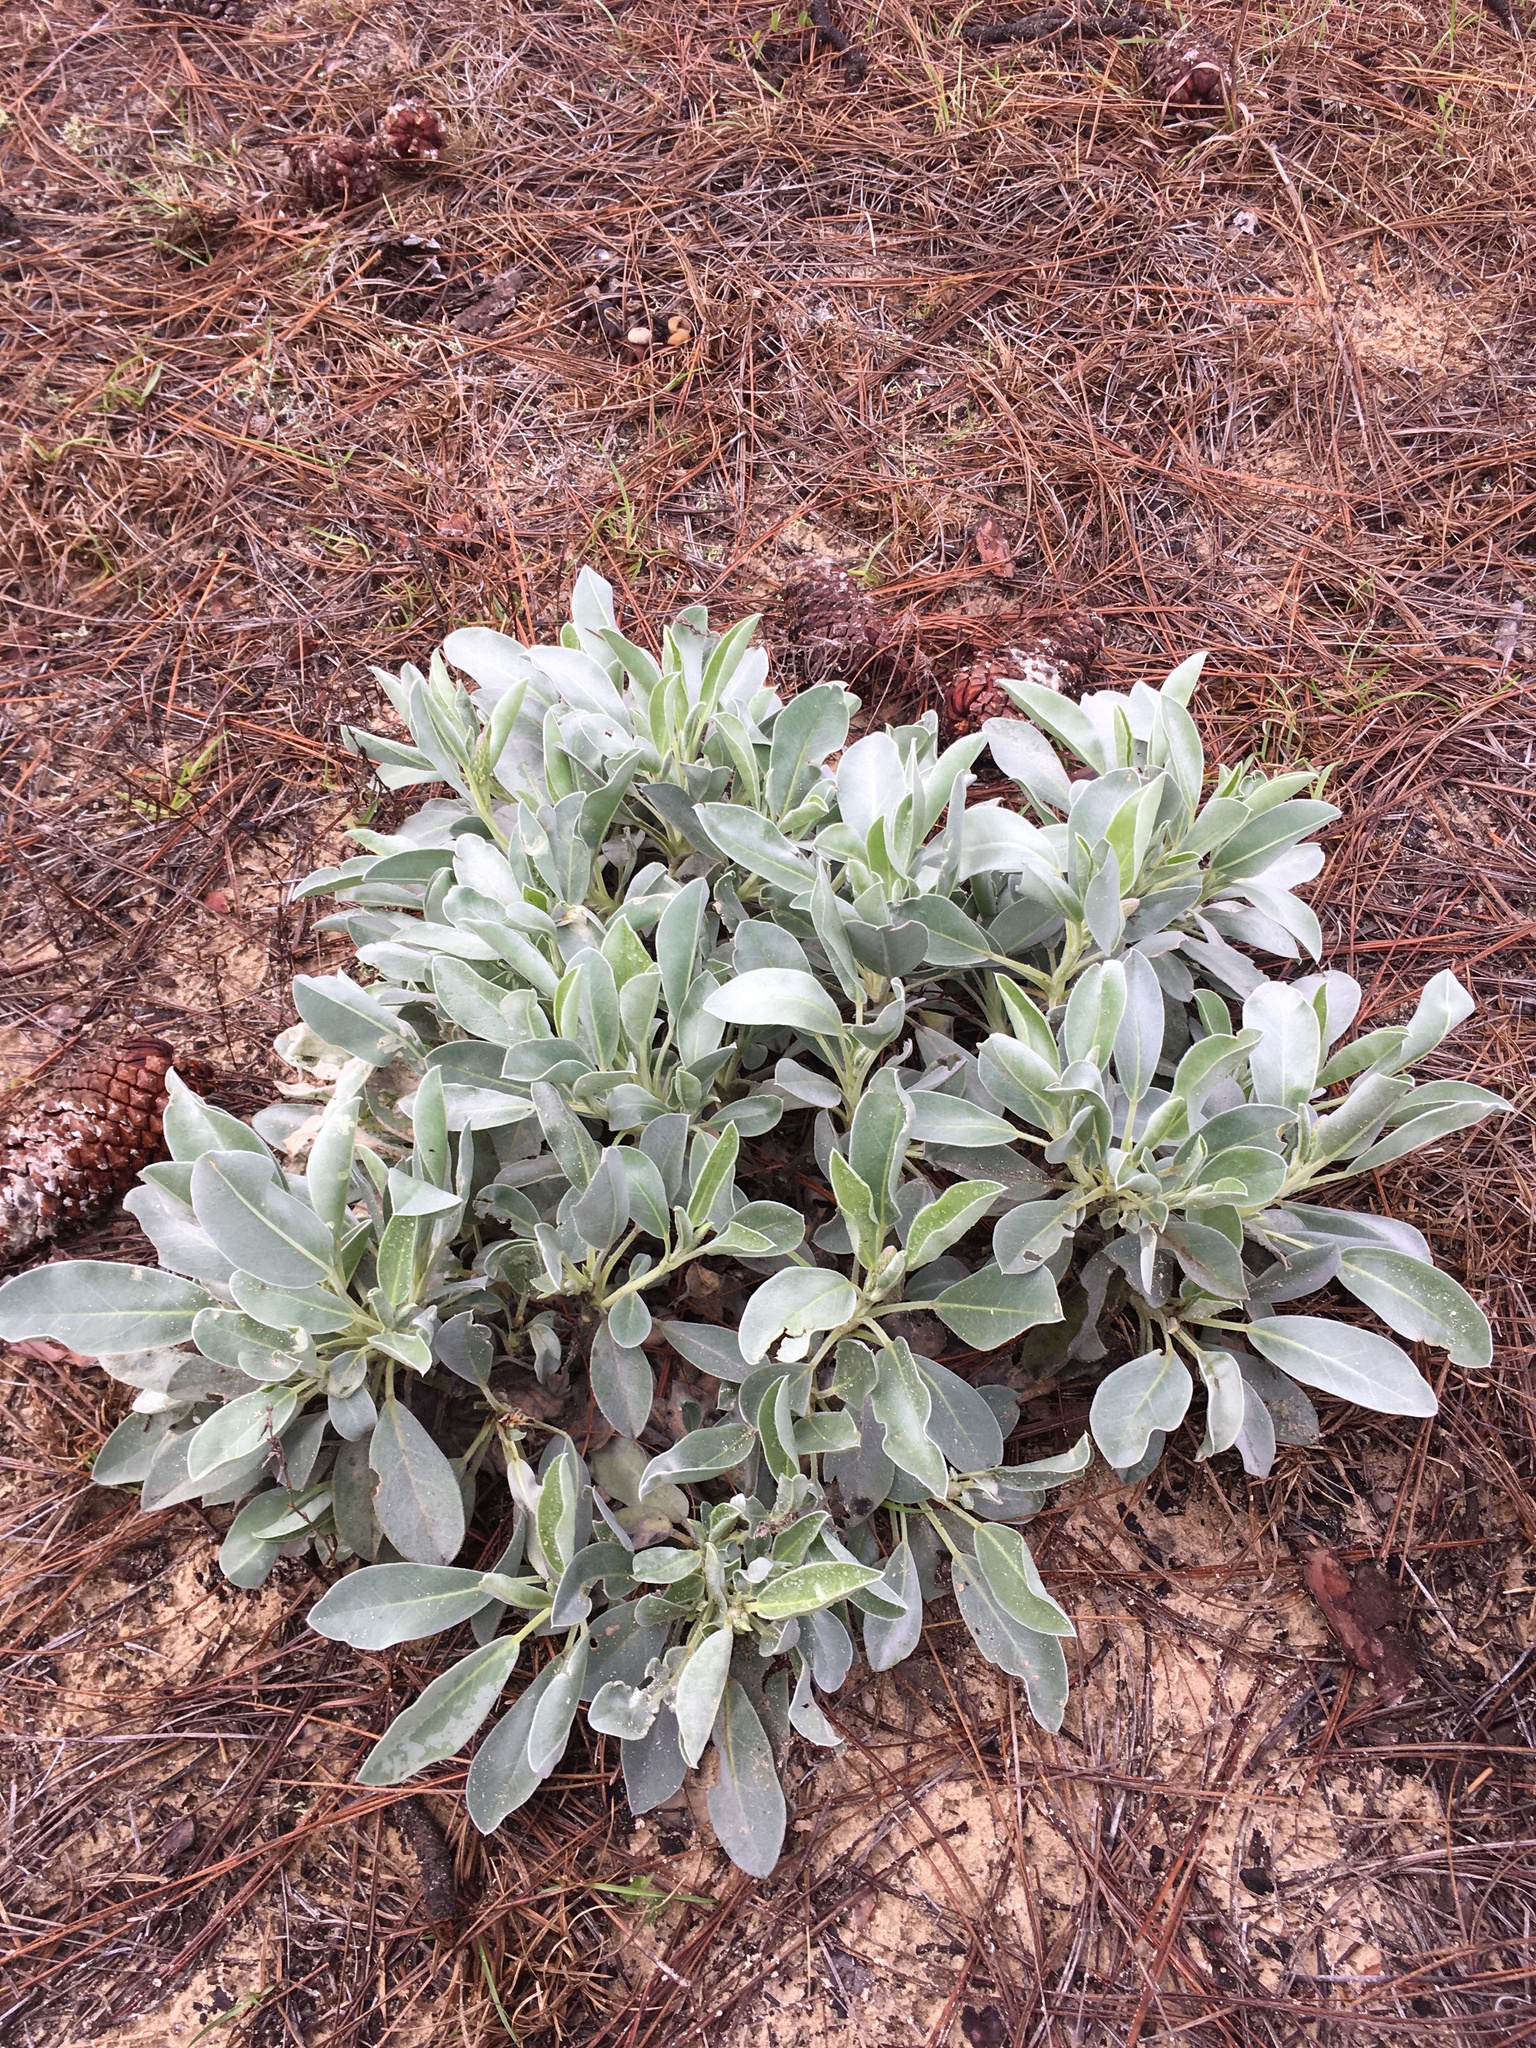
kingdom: Plantae
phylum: Tracheophyta
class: Magnoliopsida
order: Fabales
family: Fabaceae
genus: Lupinus
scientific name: Lupinus westianus
